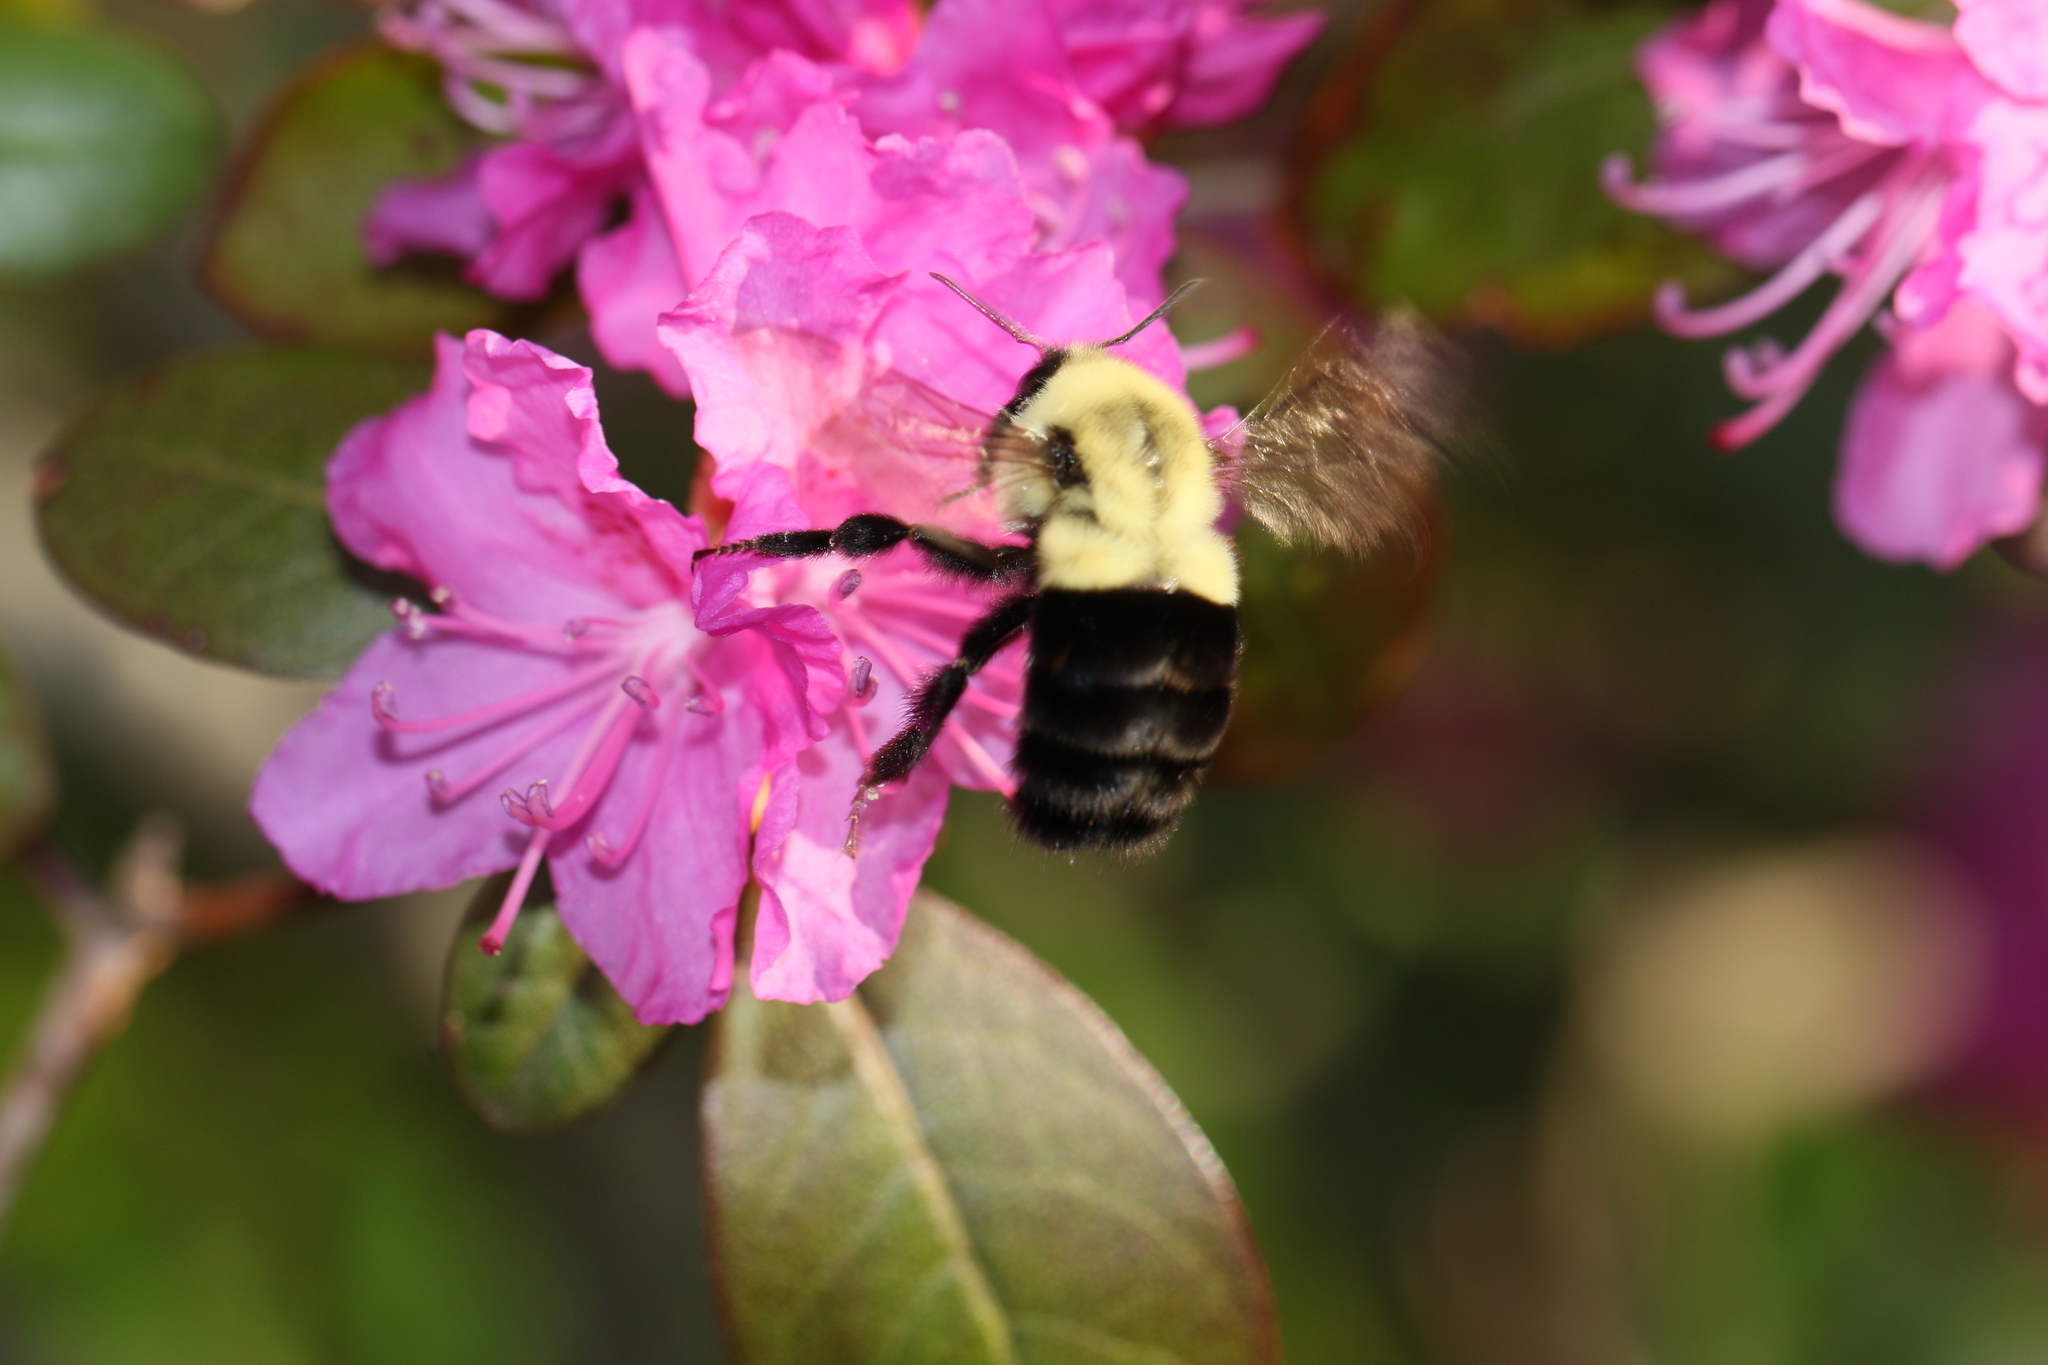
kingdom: Animalia
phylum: Arthropoda
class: Insecta
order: Hymenoptera
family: Apidae
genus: Bombus
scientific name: Bombus impatiens
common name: Common eastern bumble bee
